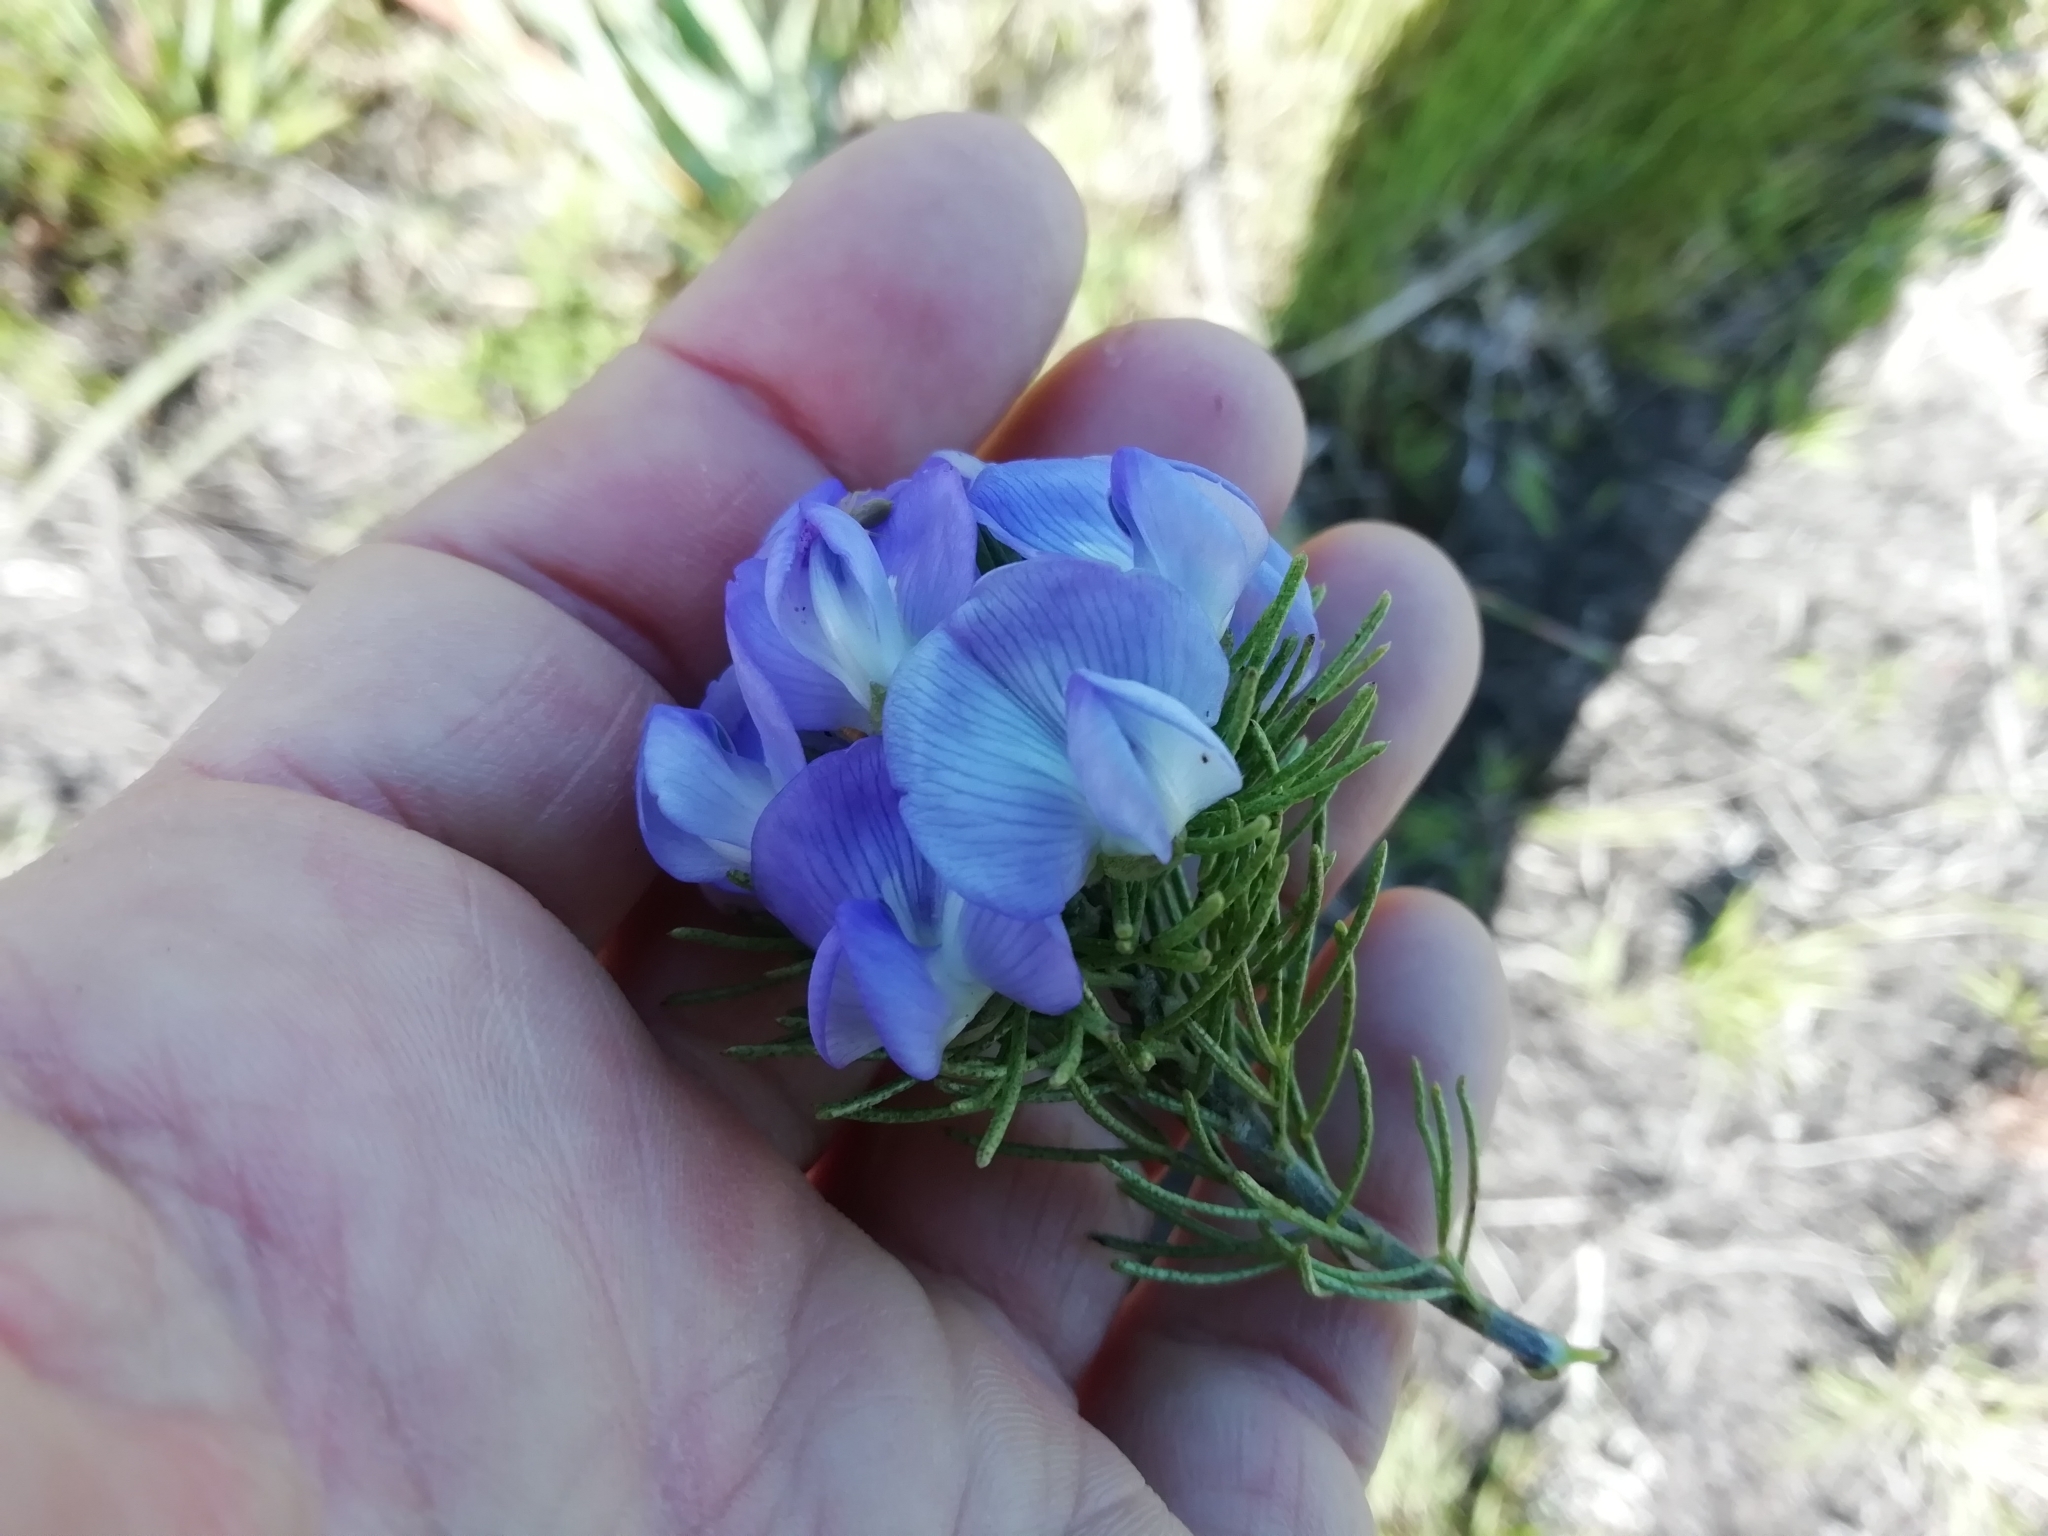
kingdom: Plantae
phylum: Tracheophyta
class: Magnoliopsida
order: Fabales
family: Fabaceae
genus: Psoralea
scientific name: Psoralea speciosa
